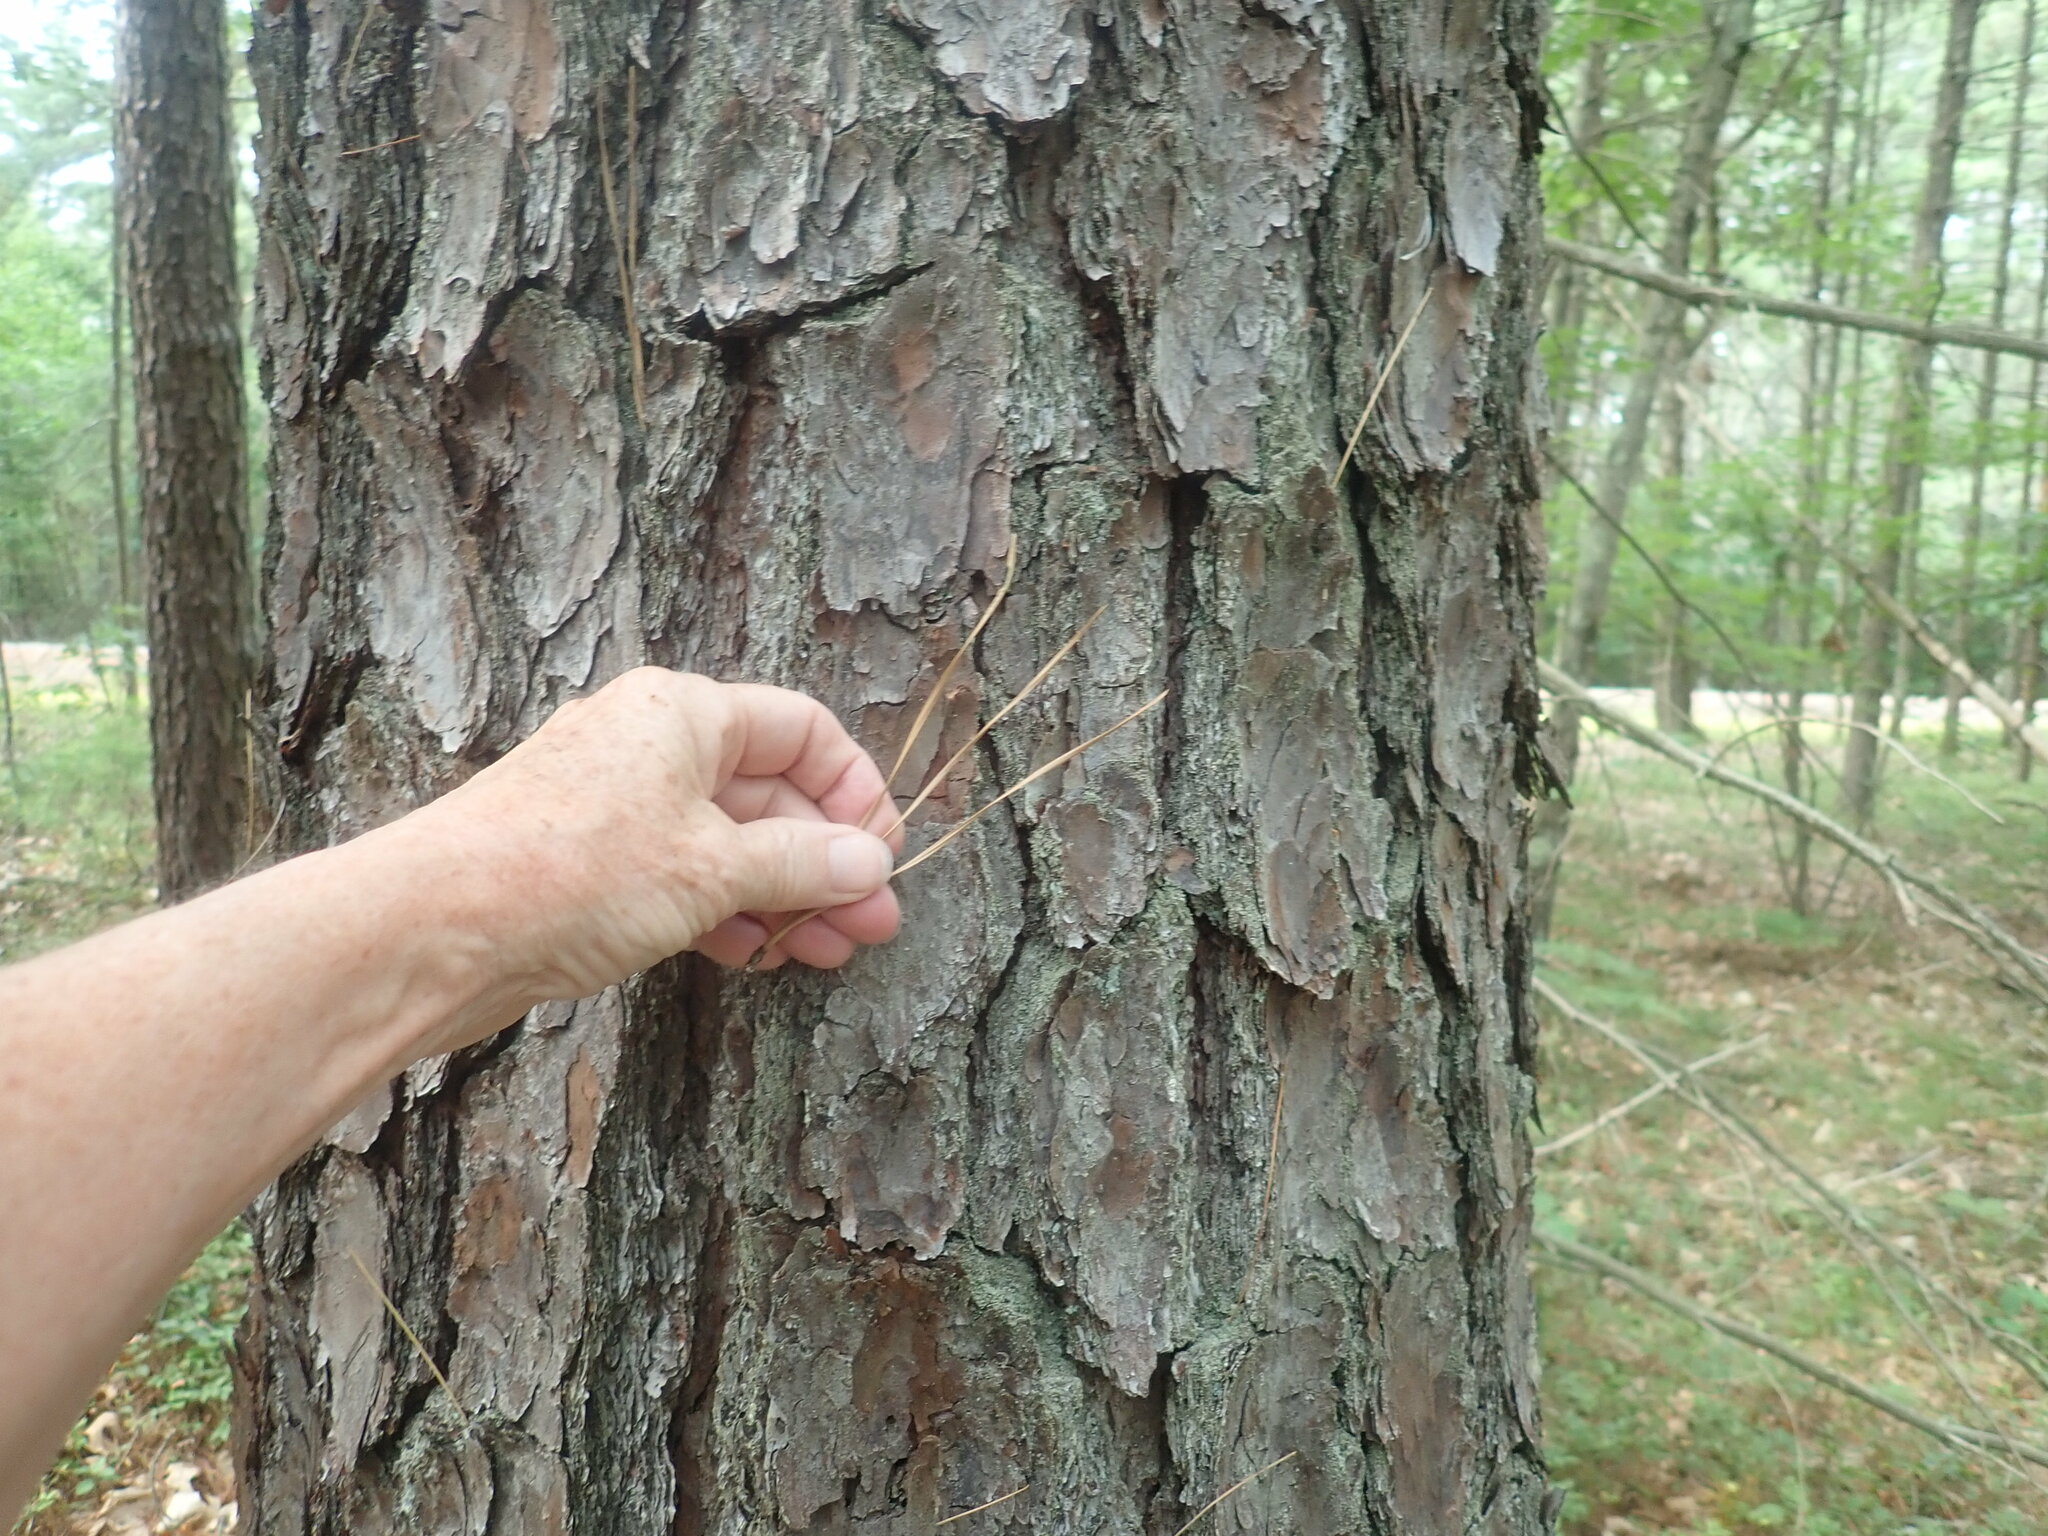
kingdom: Plantae
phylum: Tracheophyta
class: Pinopsida
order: Pinales
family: Pinaceae
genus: Pinus
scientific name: Pinus rigida
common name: Pitch pine
